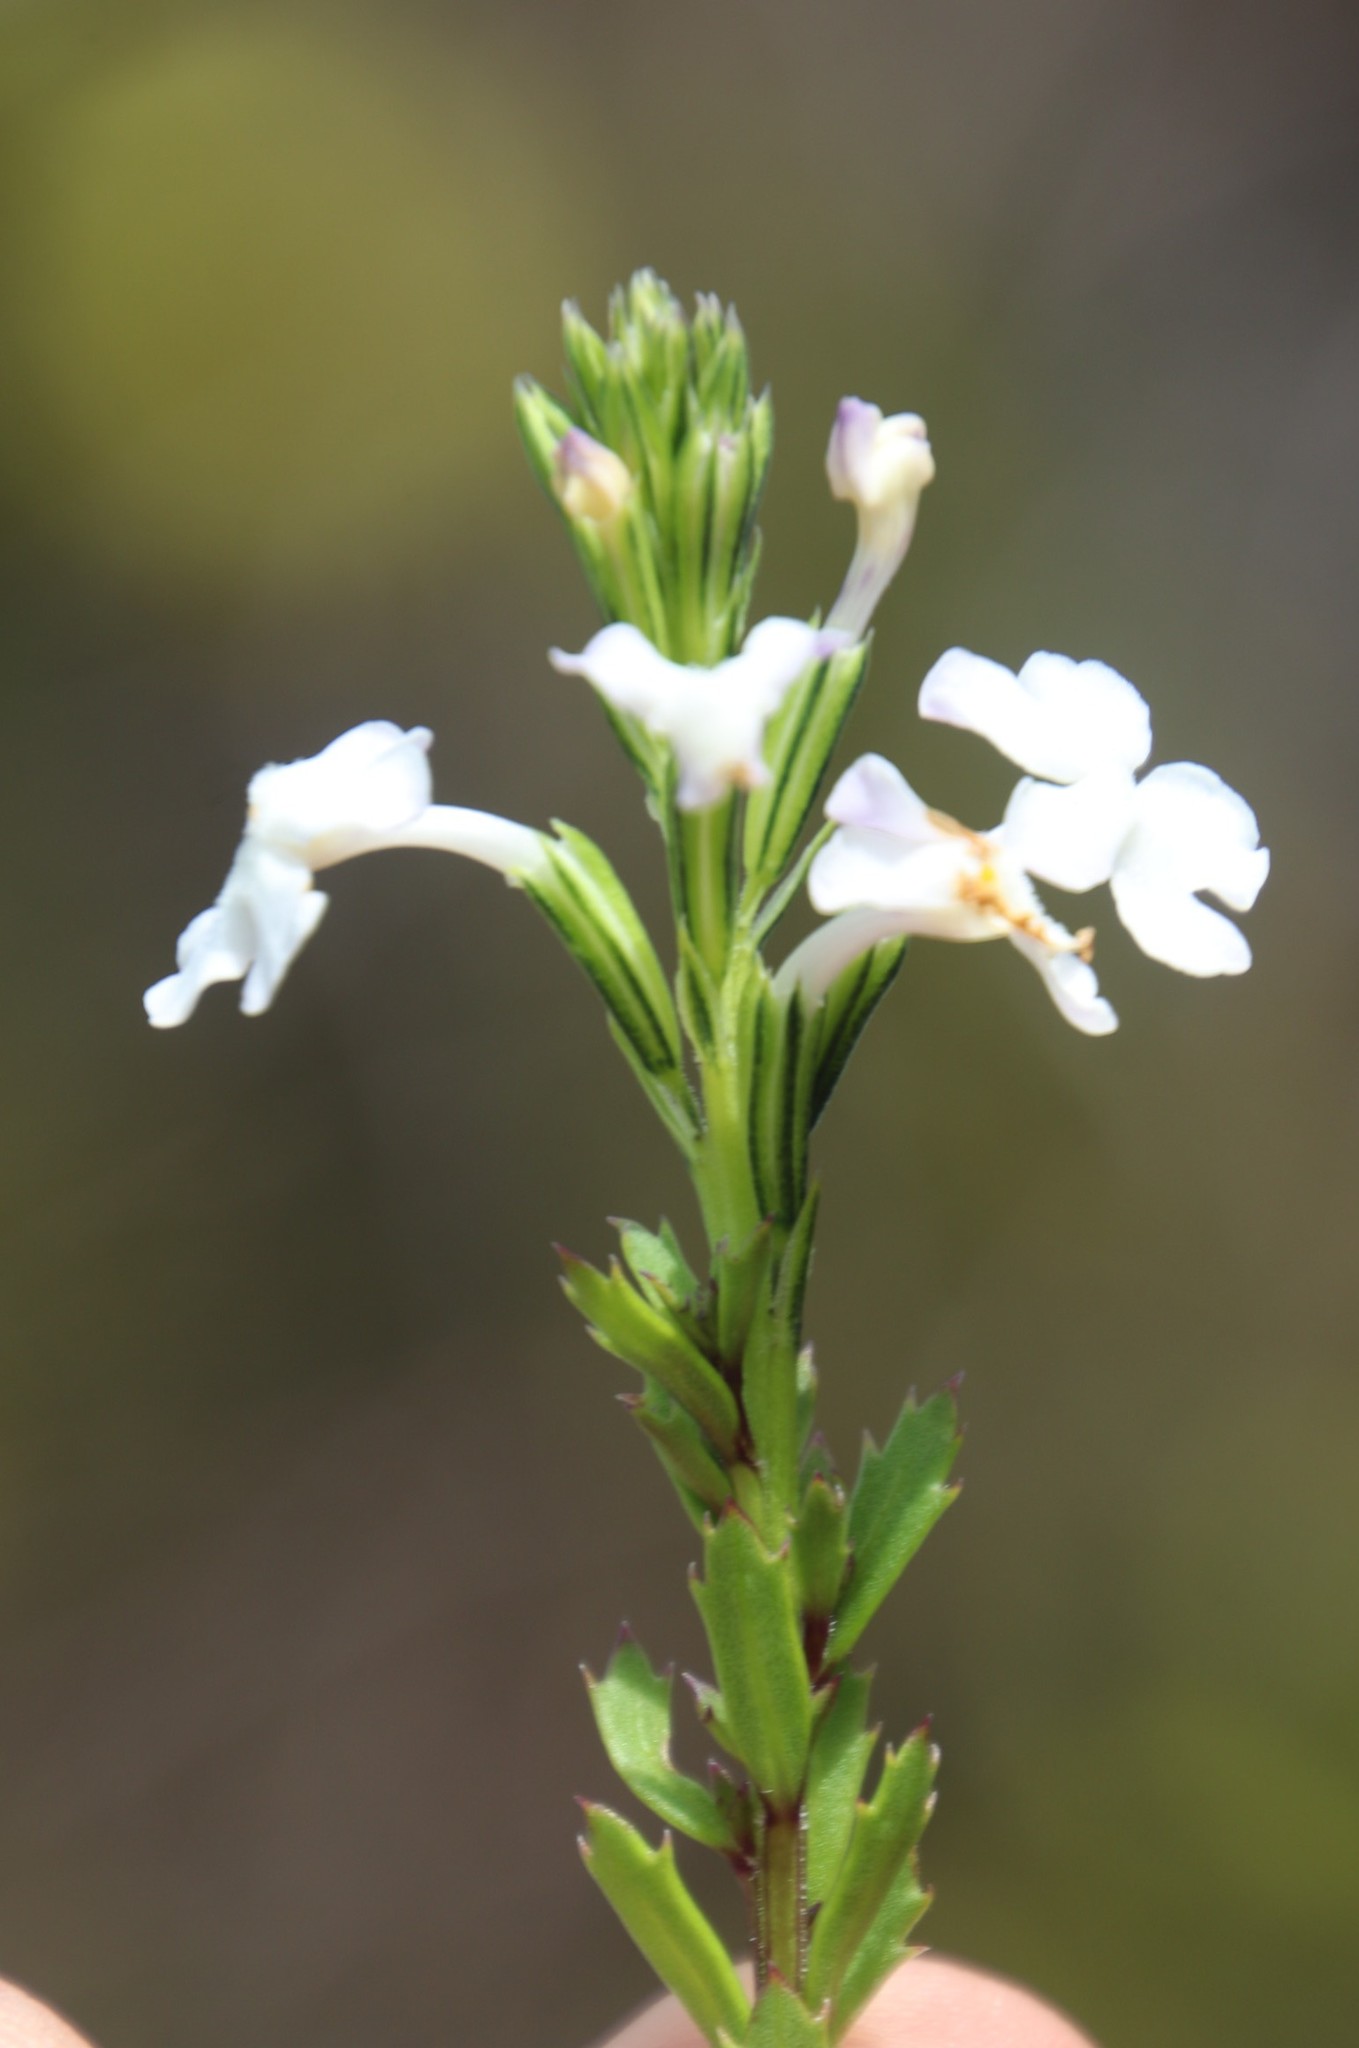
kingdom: Plantae
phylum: Tracheophyta
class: Magnoliopsida
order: Lamiales
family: Verbenaceae
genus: Chascanum
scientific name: Chascanum cernuum
